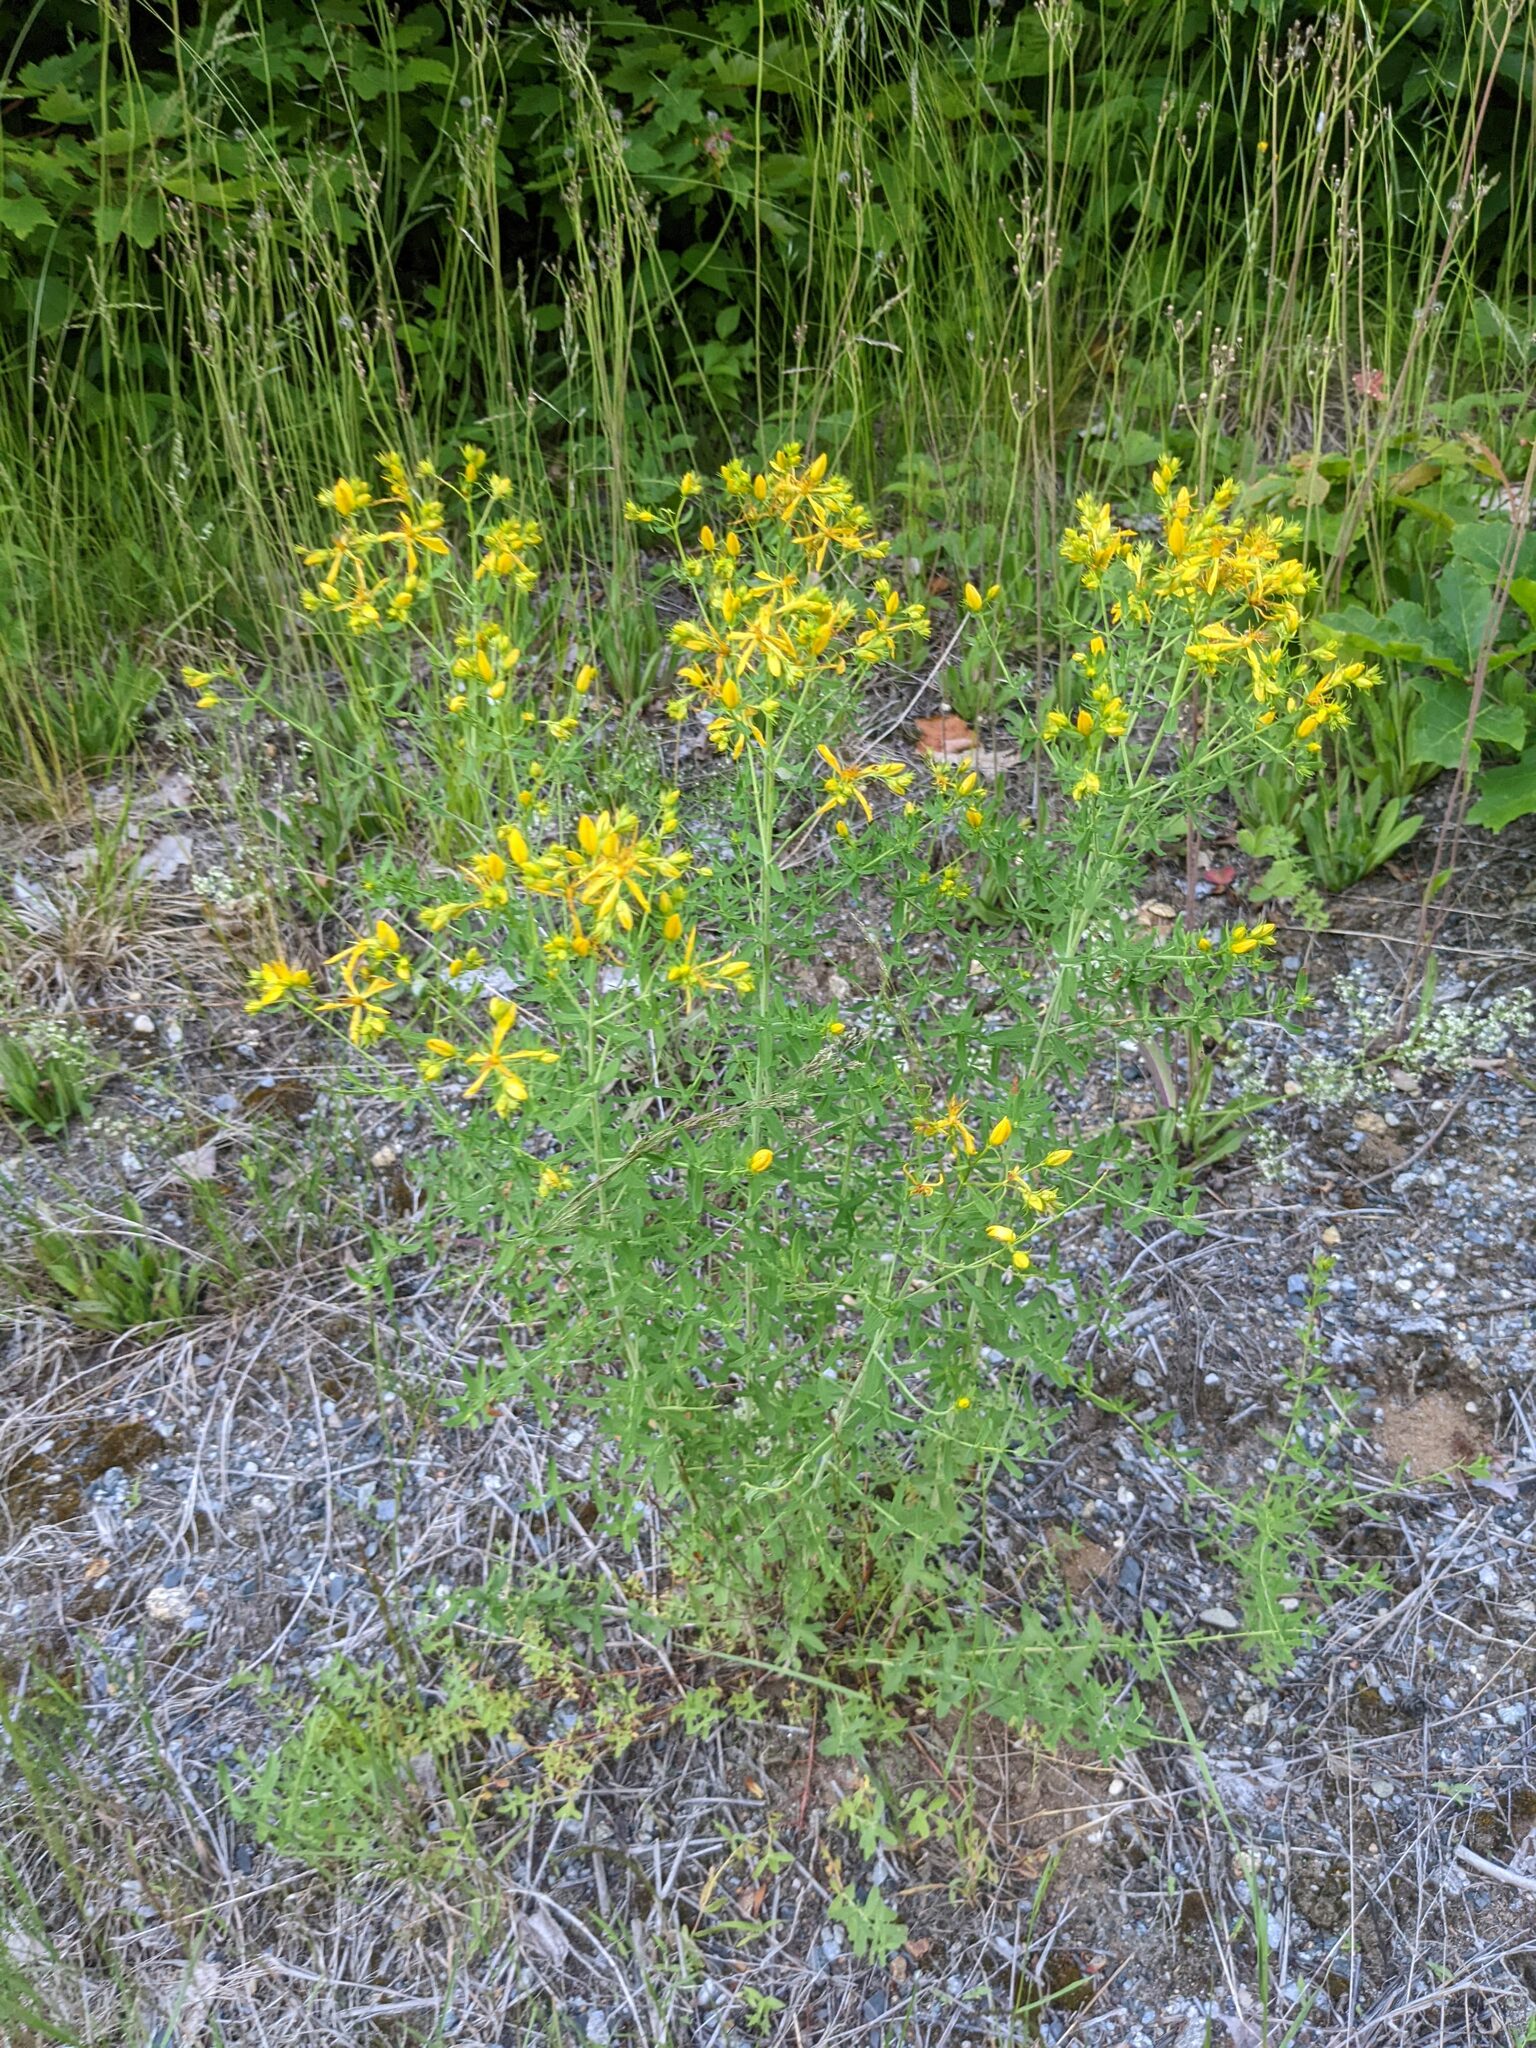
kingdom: Plantae
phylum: Tracheophyta
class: Magnoliopsida
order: Malpighiales
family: Hypericaceae
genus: Hypericum
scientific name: Hypericum perforatum
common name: Common st. johnswort
